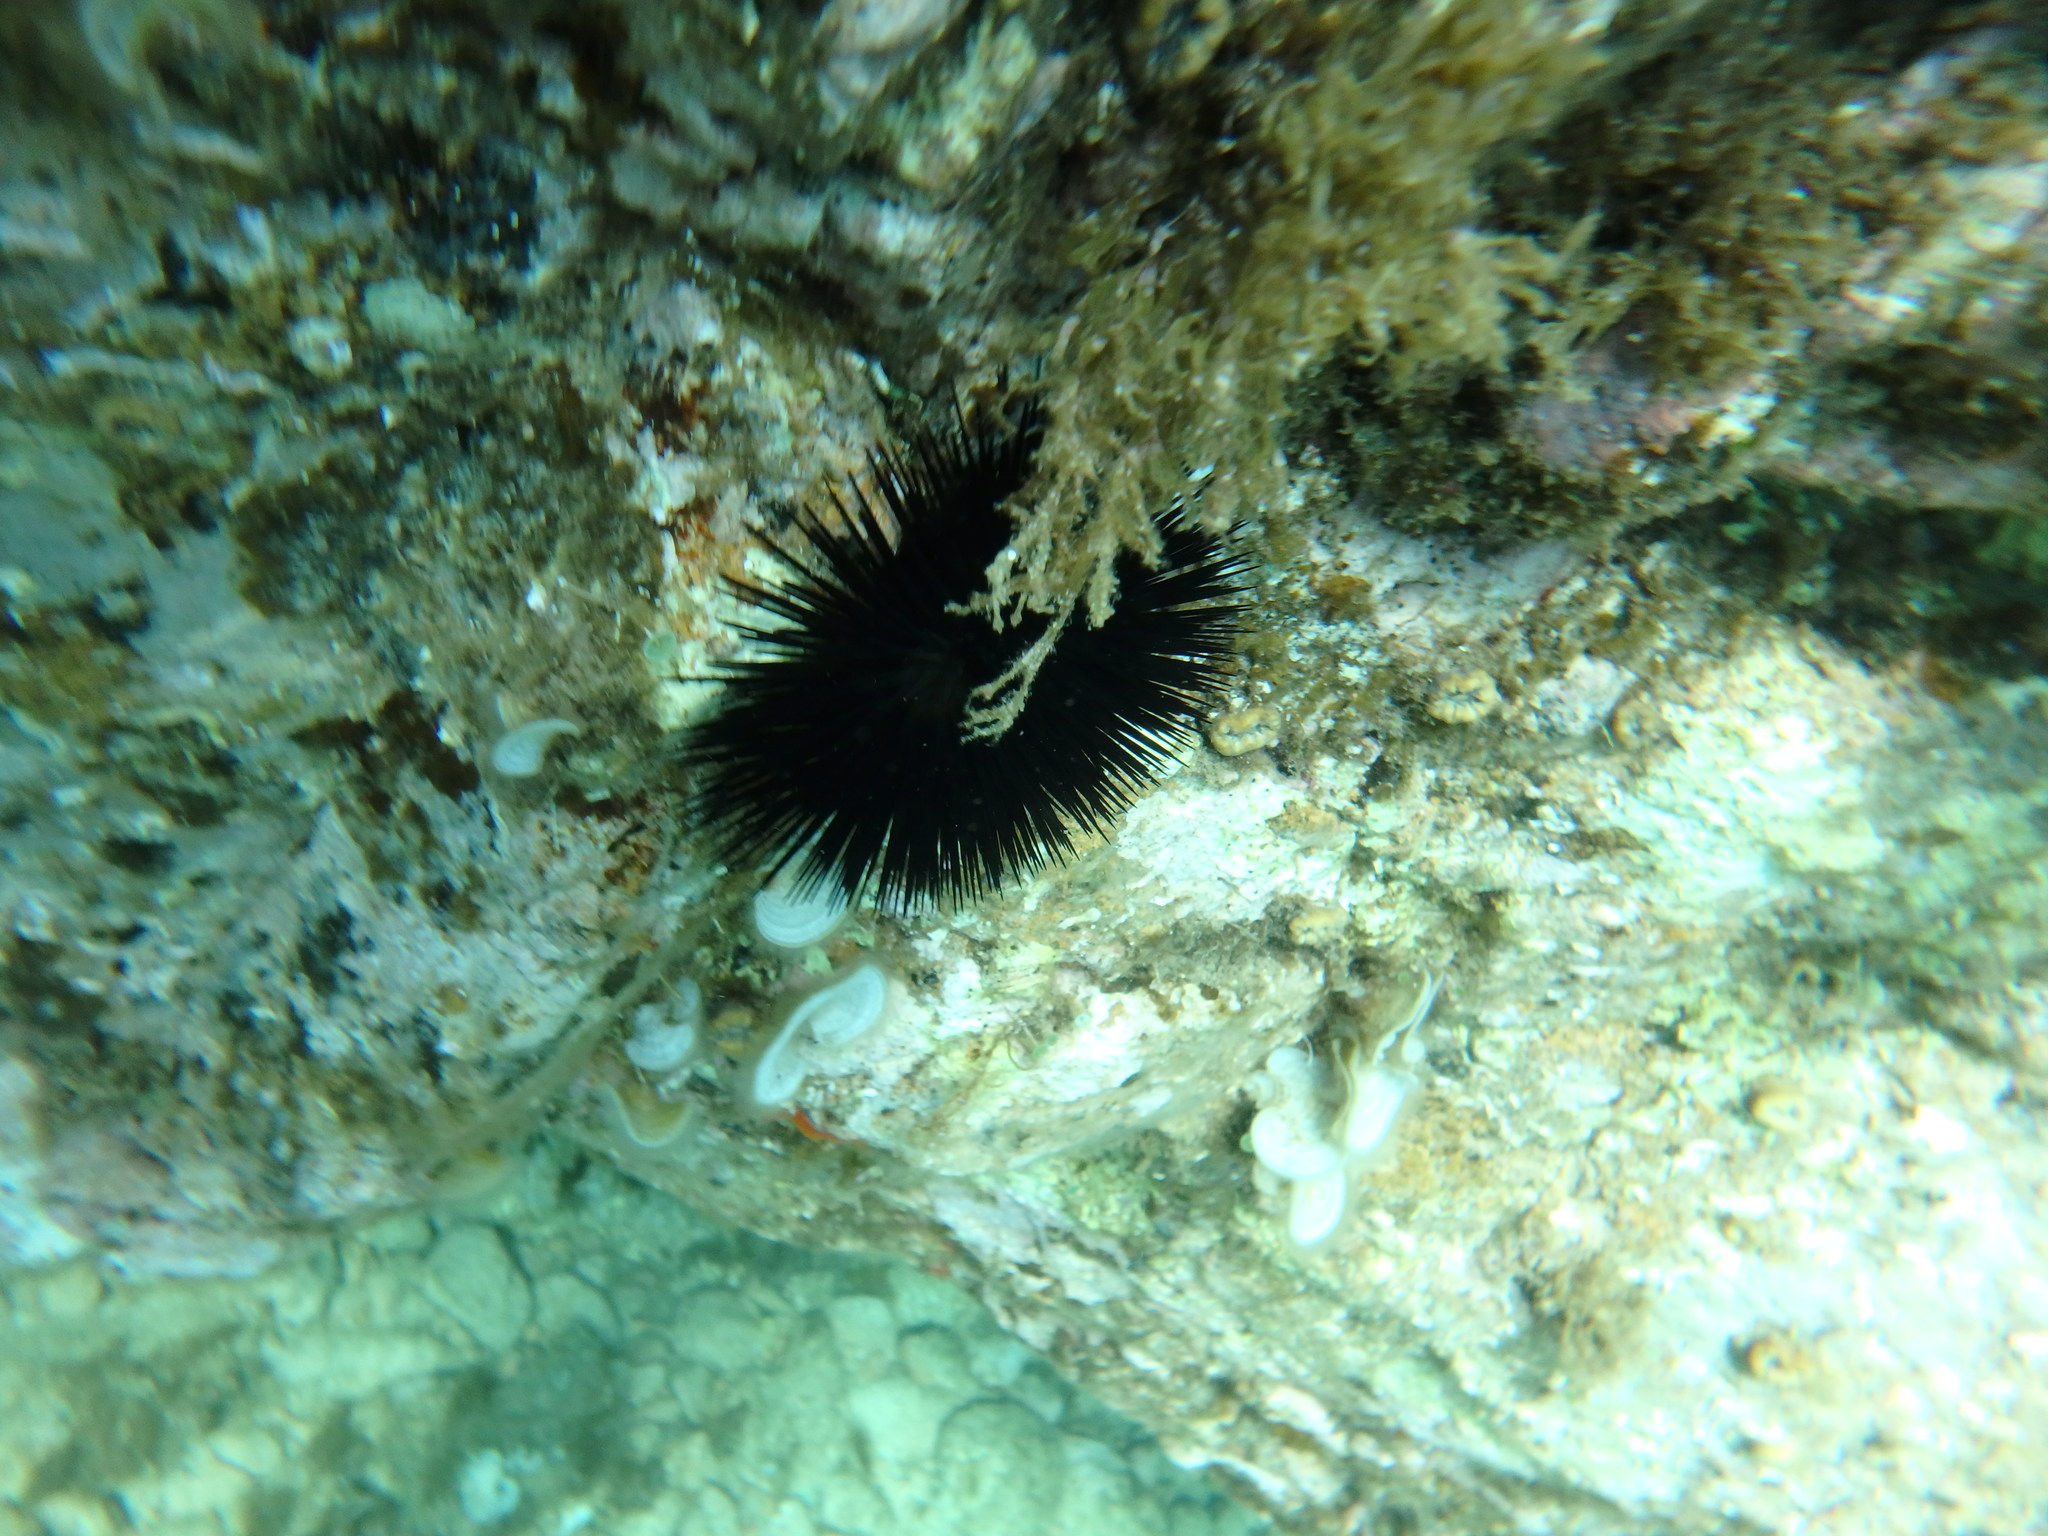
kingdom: Animalia
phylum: Echinodermata
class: Echinoidea
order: Arbacioida
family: Arbaciidae
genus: Arbacia
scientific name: Arbacia lixula
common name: Black sea urchin
